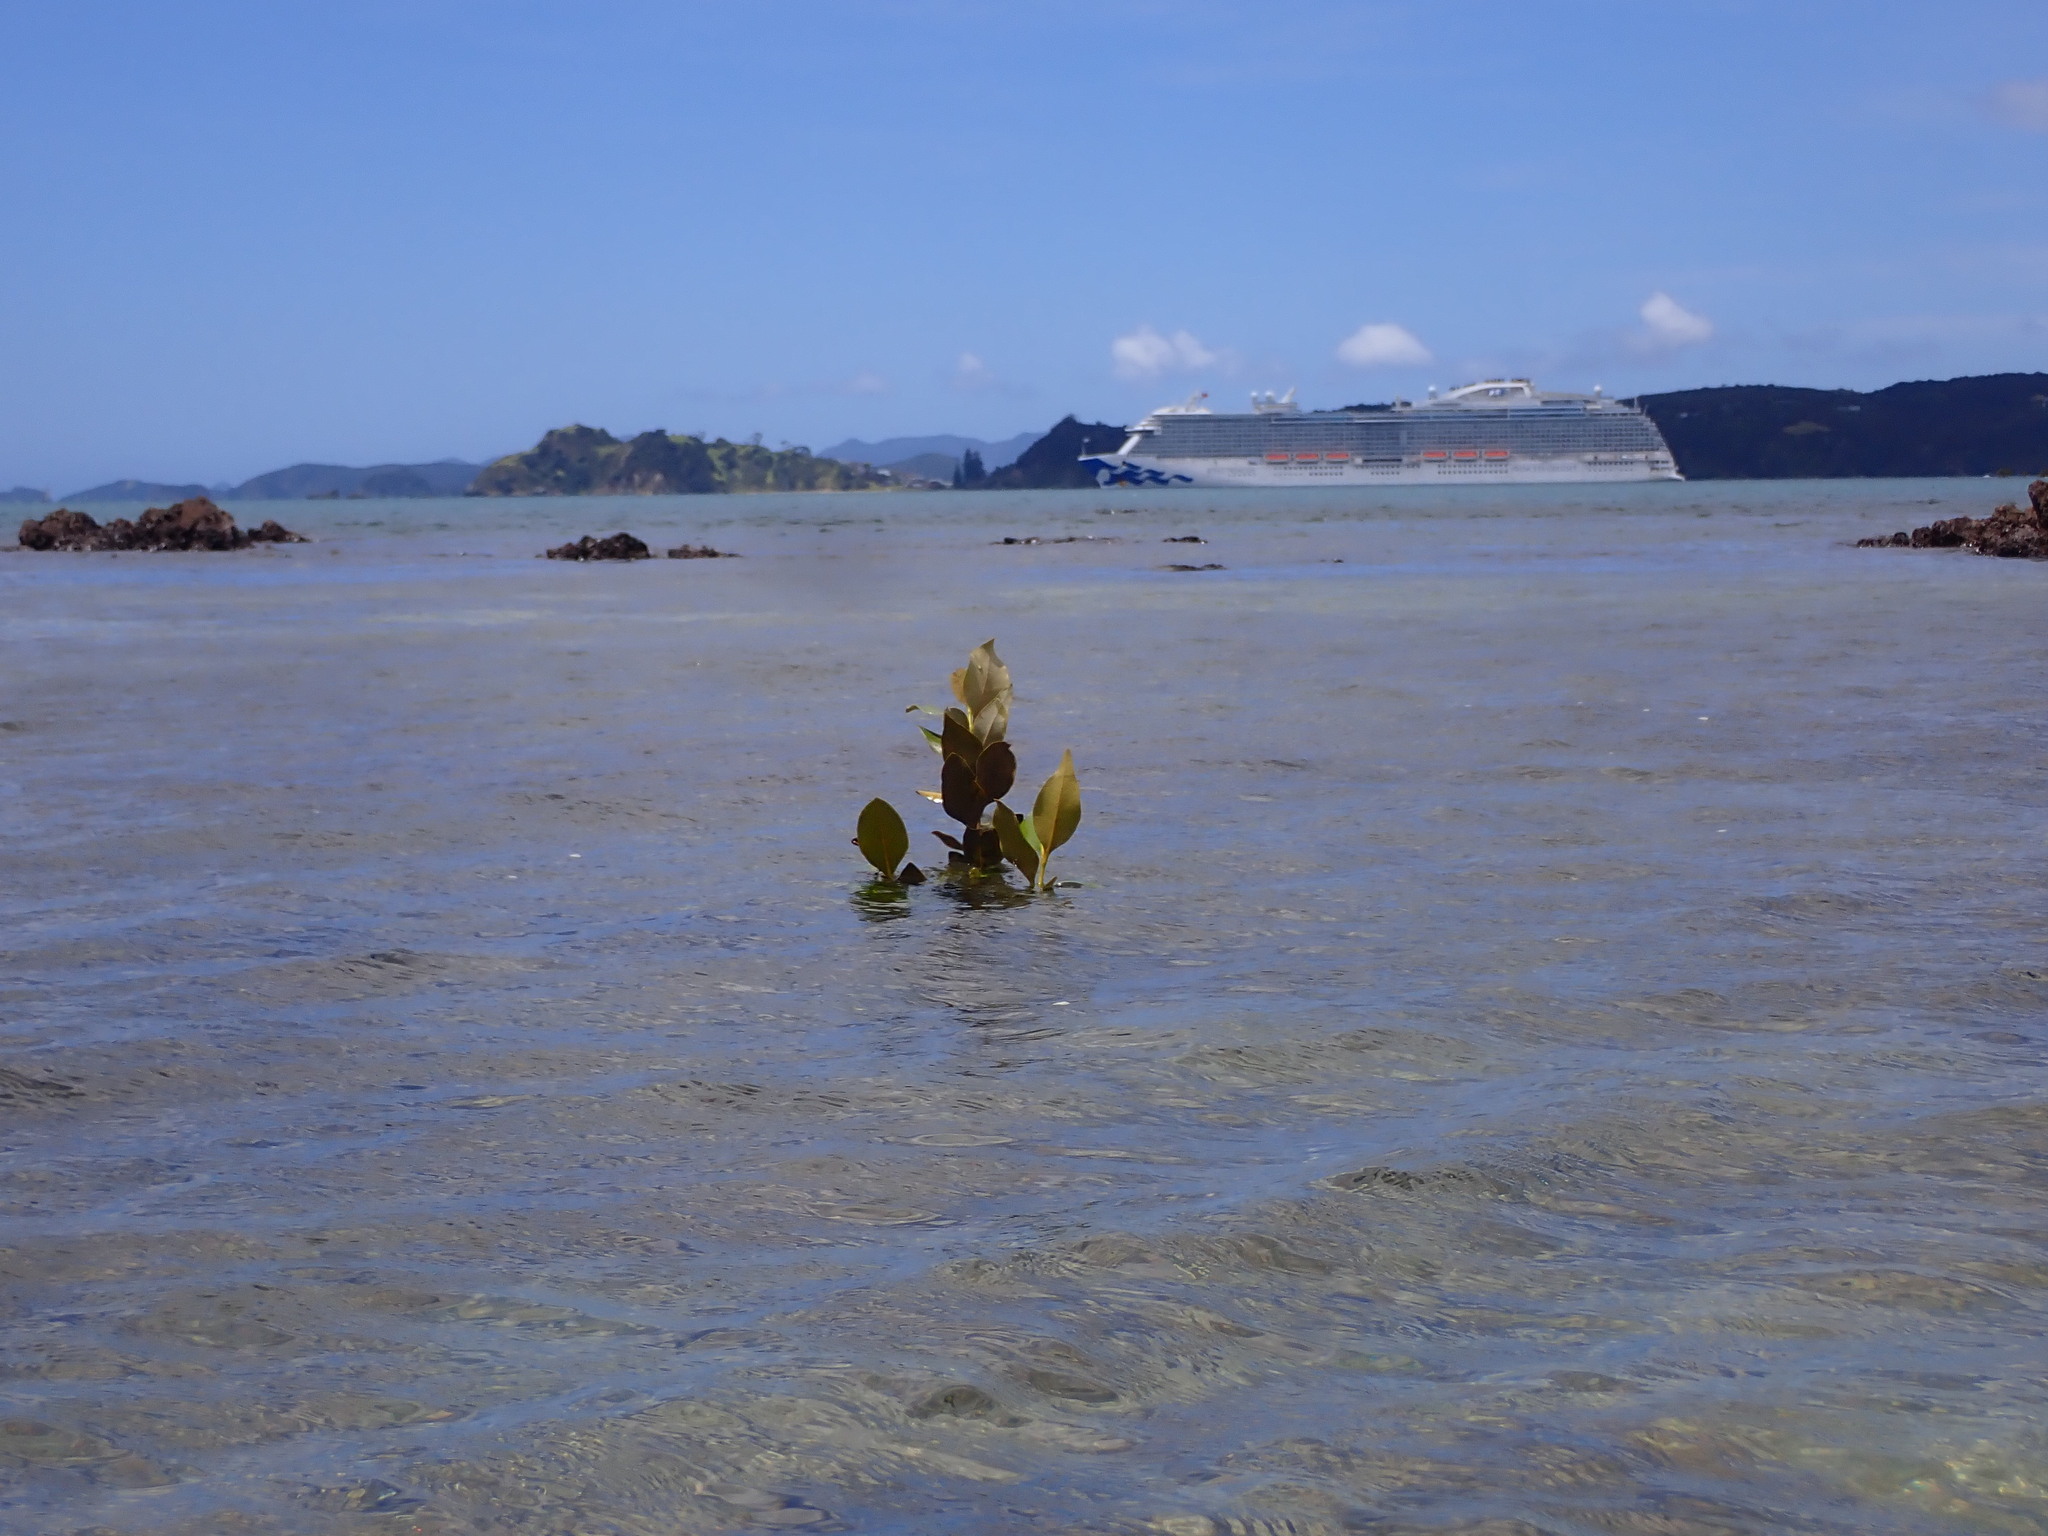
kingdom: Plantae
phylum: Tracheophyta
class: Magnoliopsida
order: Lamiales
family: Acanthaceae
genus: Avicennia
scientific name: Avicennia marina
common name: Gray mangrove
